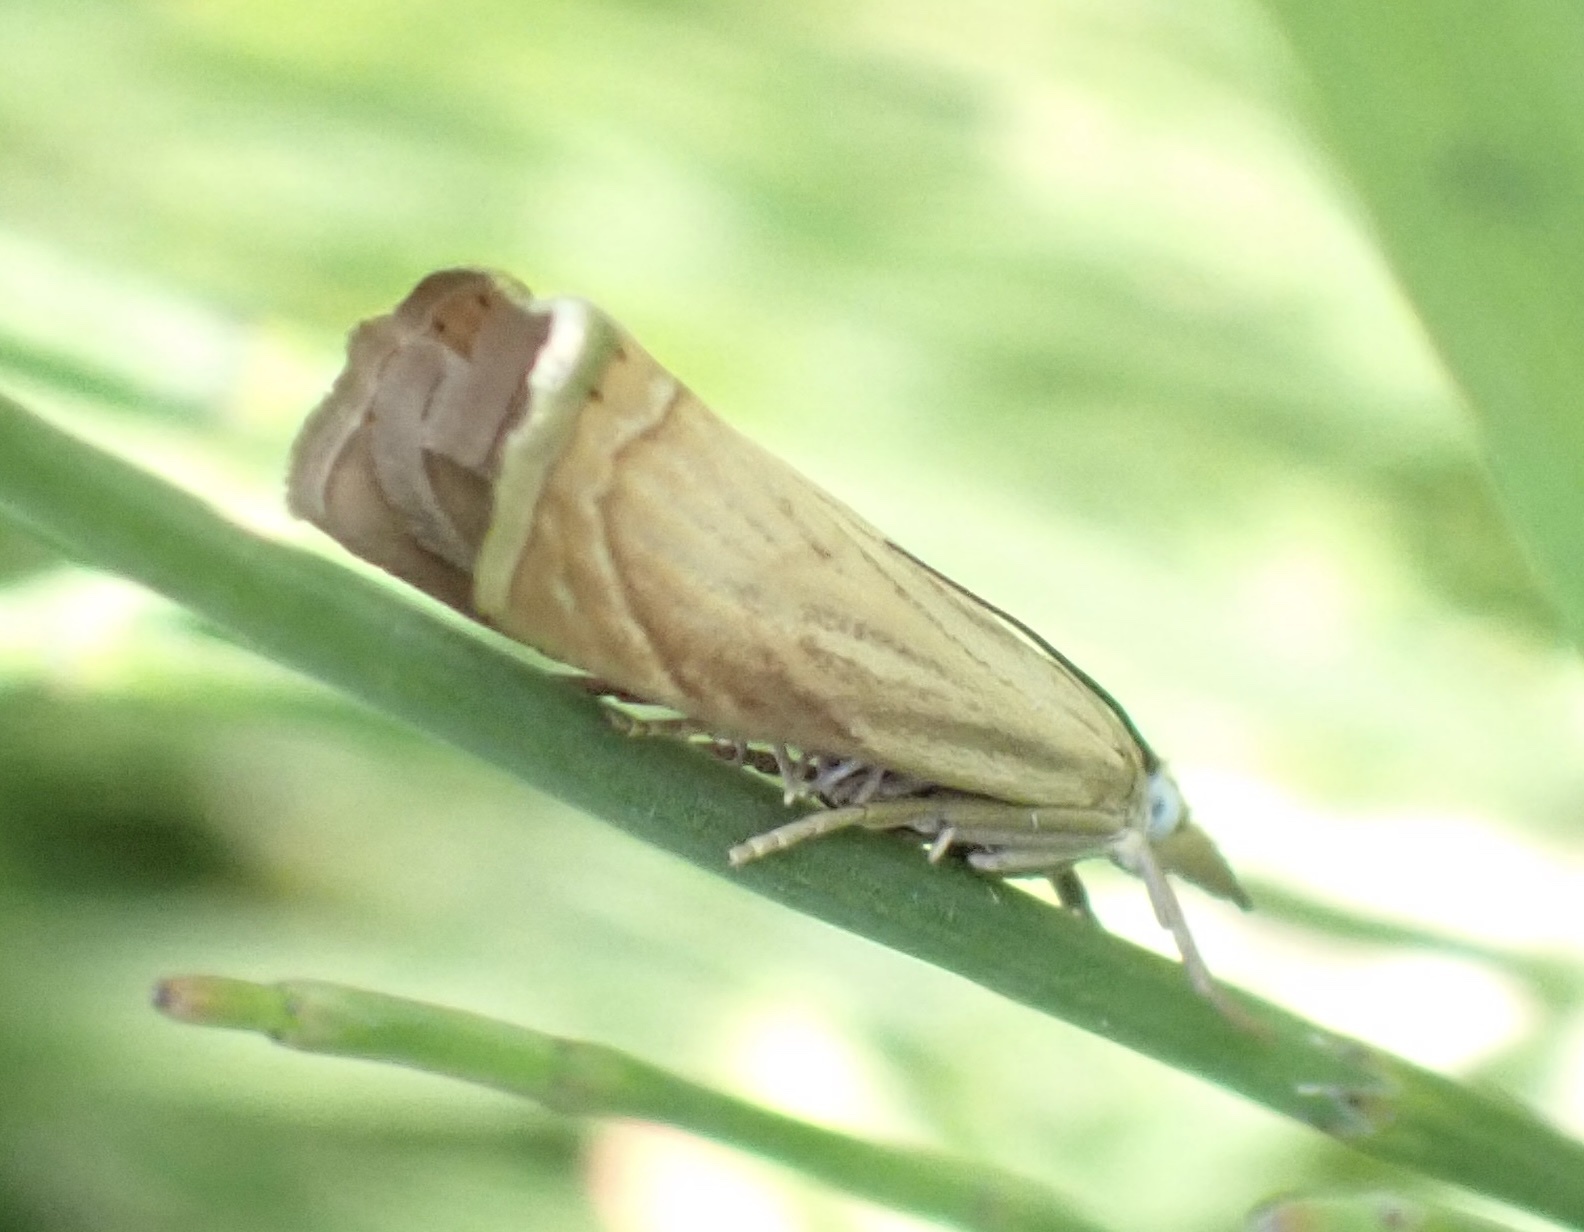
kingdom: Animalia
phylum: Arthropoda
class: Insecta
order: Lepidoptera
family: Crambidae
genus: Chrysoteuchia
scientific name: Chrysoteuchia culmella
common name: Garden grass-veneer
